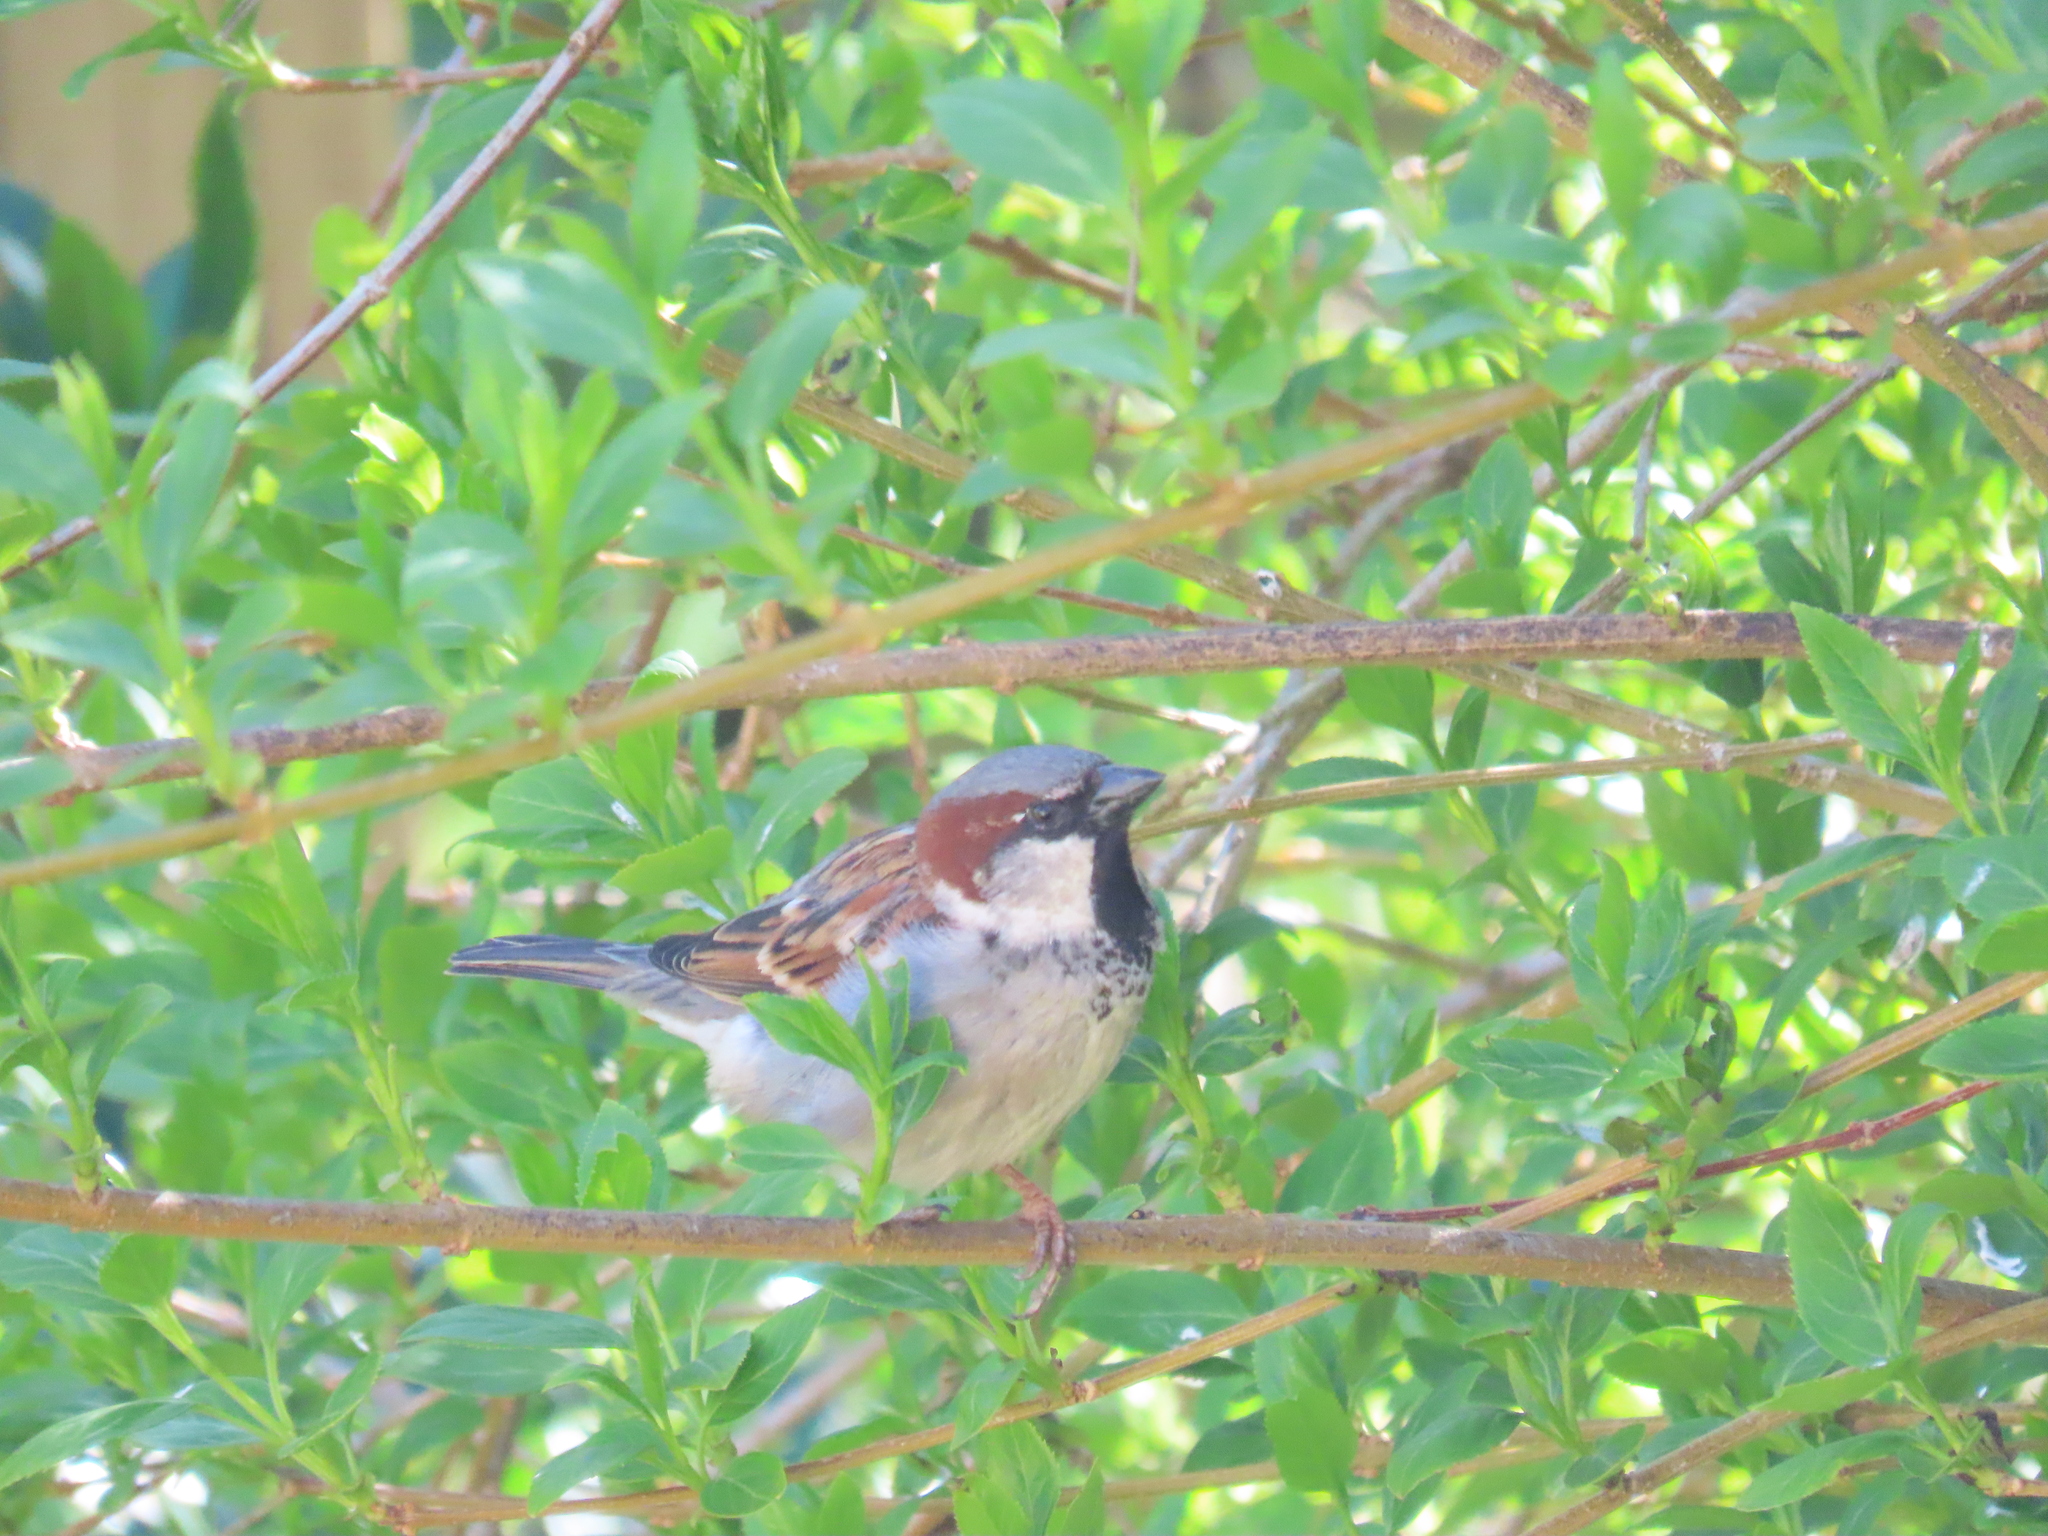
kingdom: Animalia
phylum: Chordata
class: Aves
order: Passeriformes
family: Passeridae
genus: Passer
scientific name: Passer domesticus
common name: House sparrow
